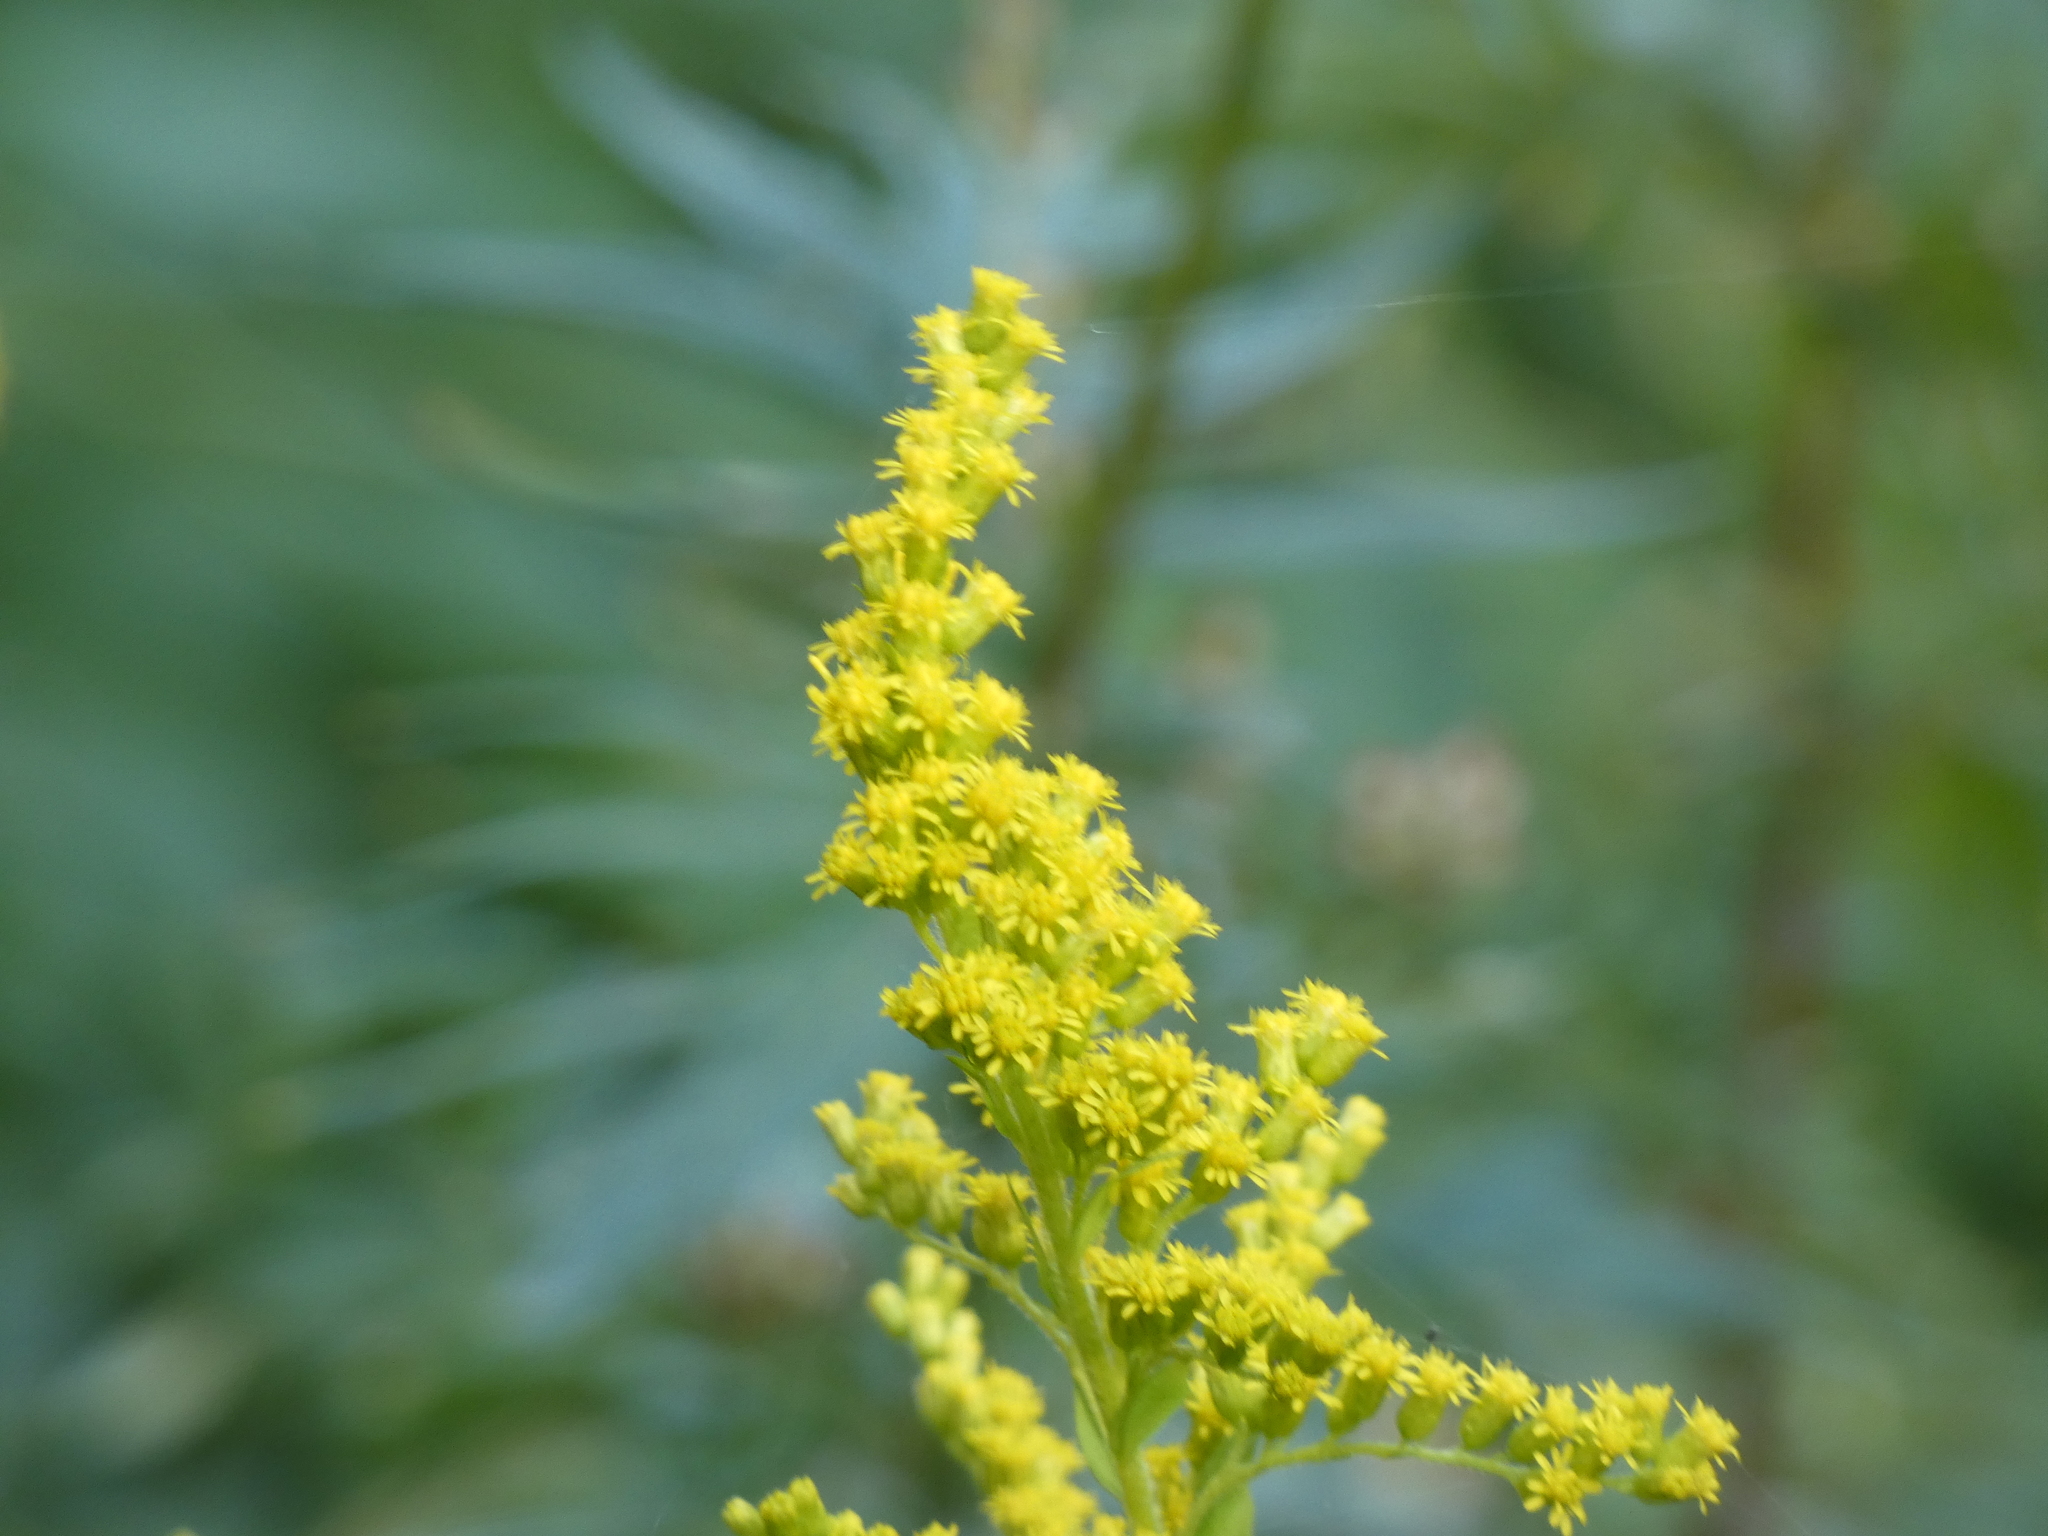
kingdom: Plantae
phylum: Tracheophyta
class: Magnoliopsida
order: Asterales
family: Asteraceae
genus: Solidago
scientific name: Solidago canadensis
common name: Canada goldenrod
